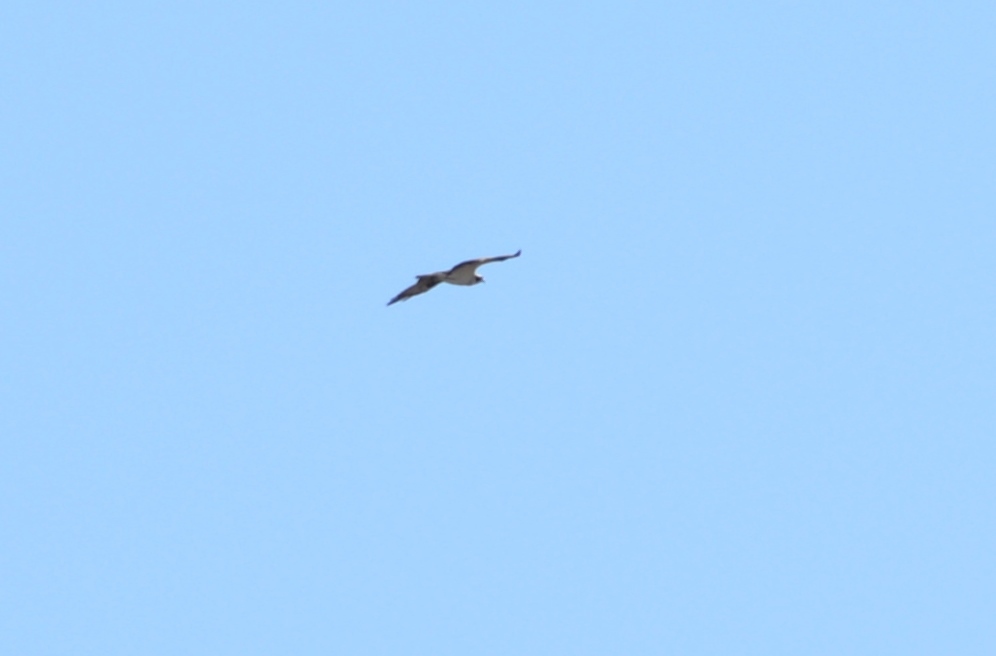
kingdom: Animalia
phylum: Chordata
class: Aves
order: Accipitriformes
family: Pandionidae
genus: Pandion
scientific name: Pandion haliaetus
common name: Osprey
